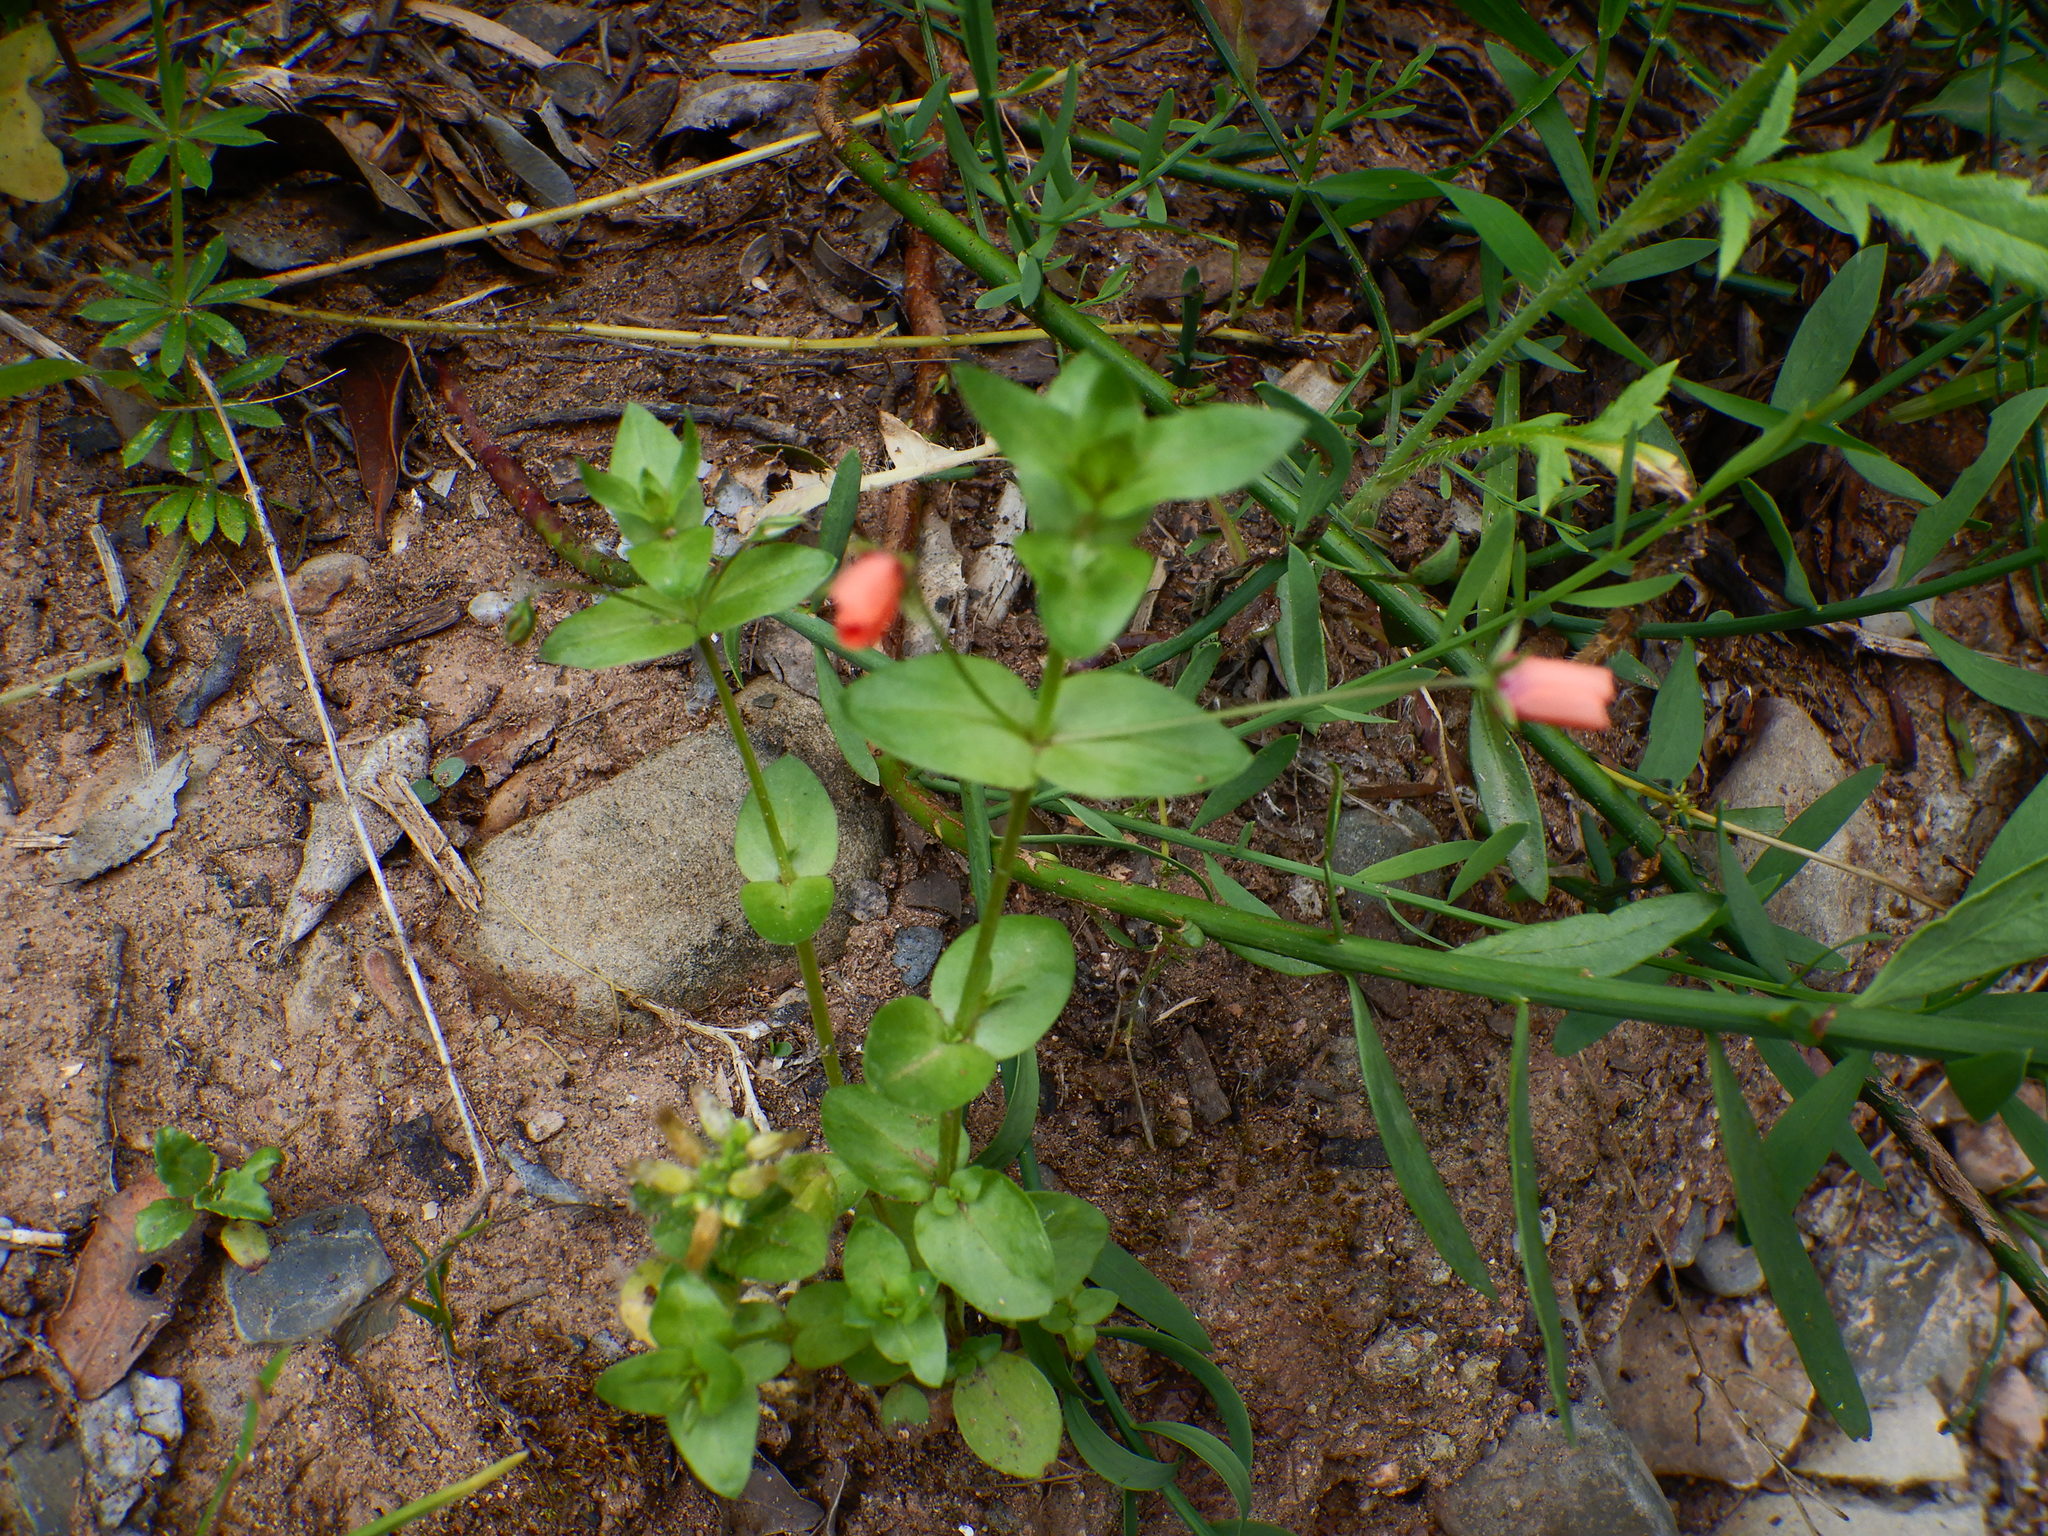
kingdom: Plantae
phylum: Tracheophyta
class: Magnoliopsida
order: Ericales
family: Primulaceae
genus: Lysimachia
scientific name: Lysimachia arvensis
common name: Scarlet pimpernel
